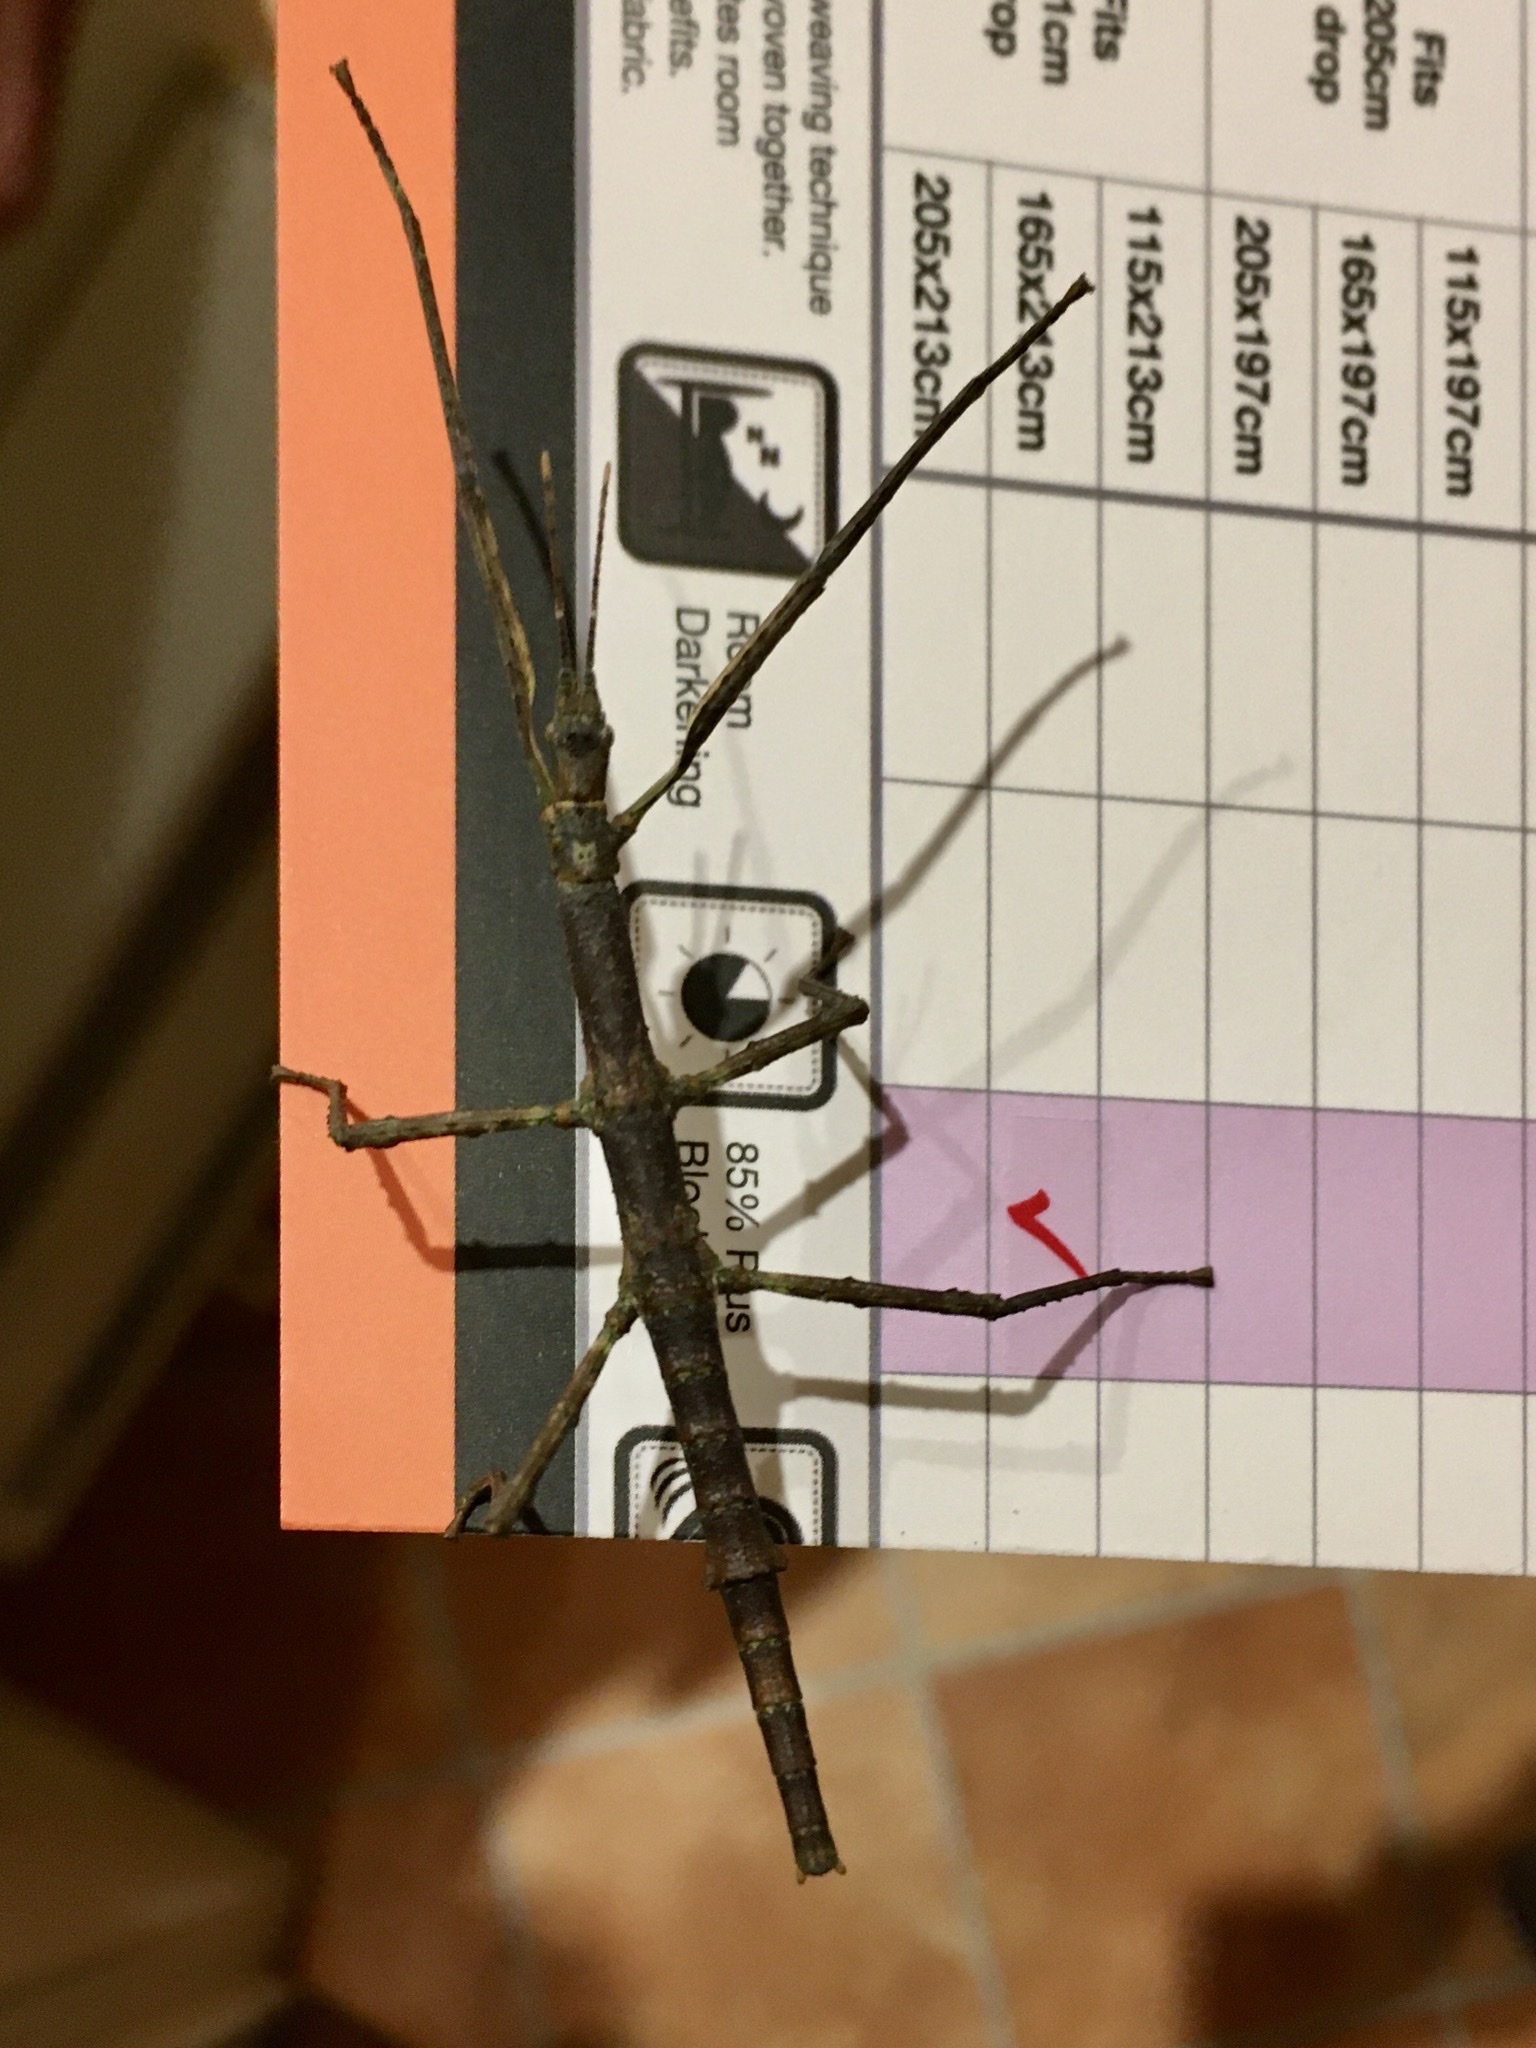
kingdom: Animalia
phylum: Arthropoda
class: Insecta
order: Phasmida
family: Phasmatidae
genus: Niveaphasma
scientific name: Niveaphasma annulatum
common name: Hutton's stick insect
